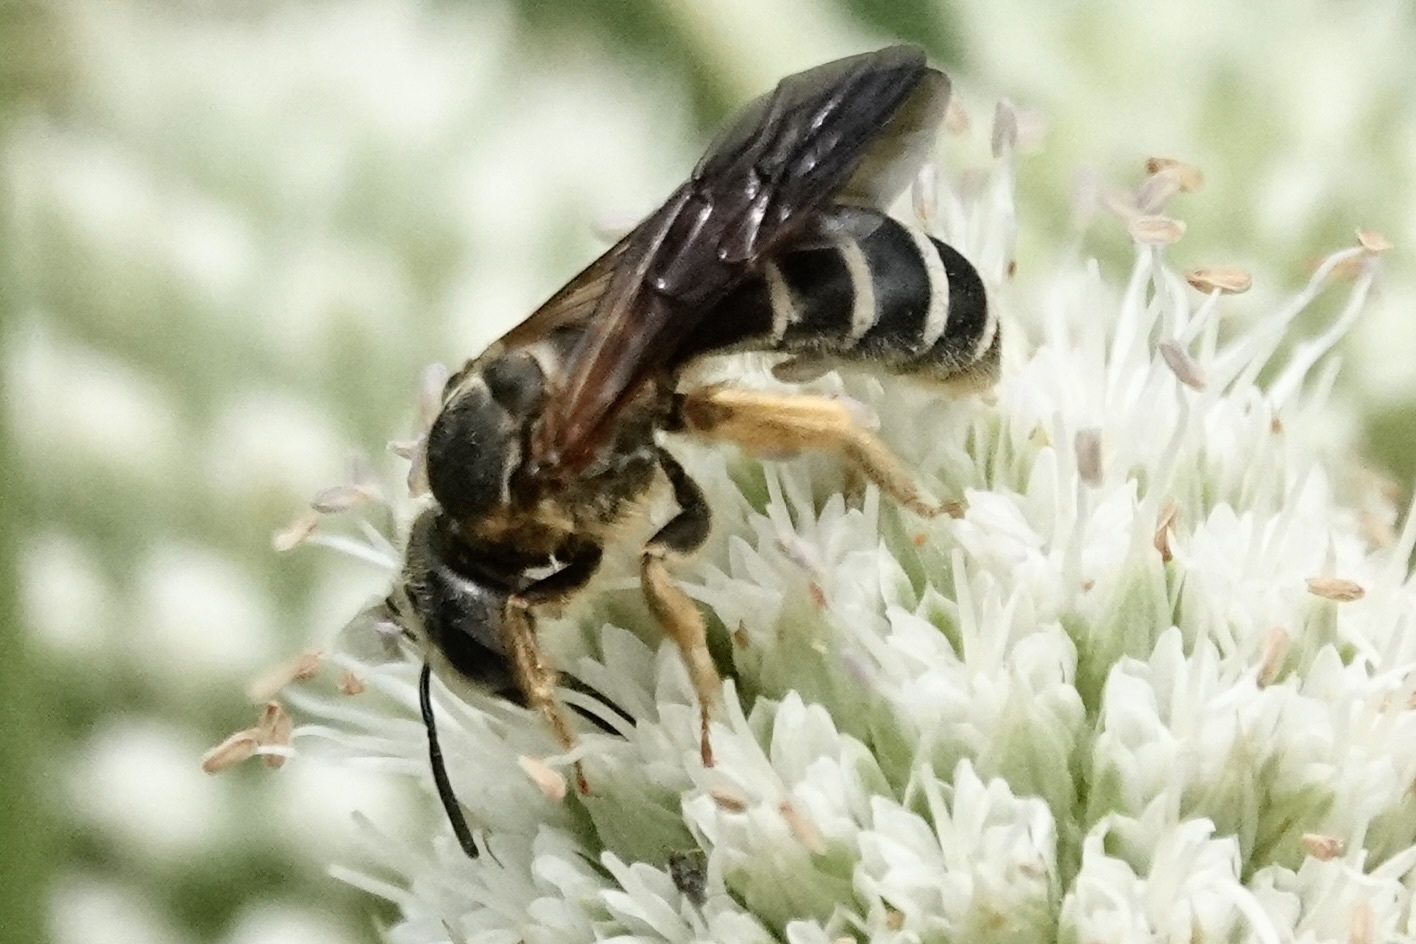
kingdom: Animalia
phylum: Arthropoda
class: Insecta
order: Hymenoptera
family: Halictidae
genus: Halictus
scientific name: Halictus parallelus
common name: Parallel-striped sweat bee
